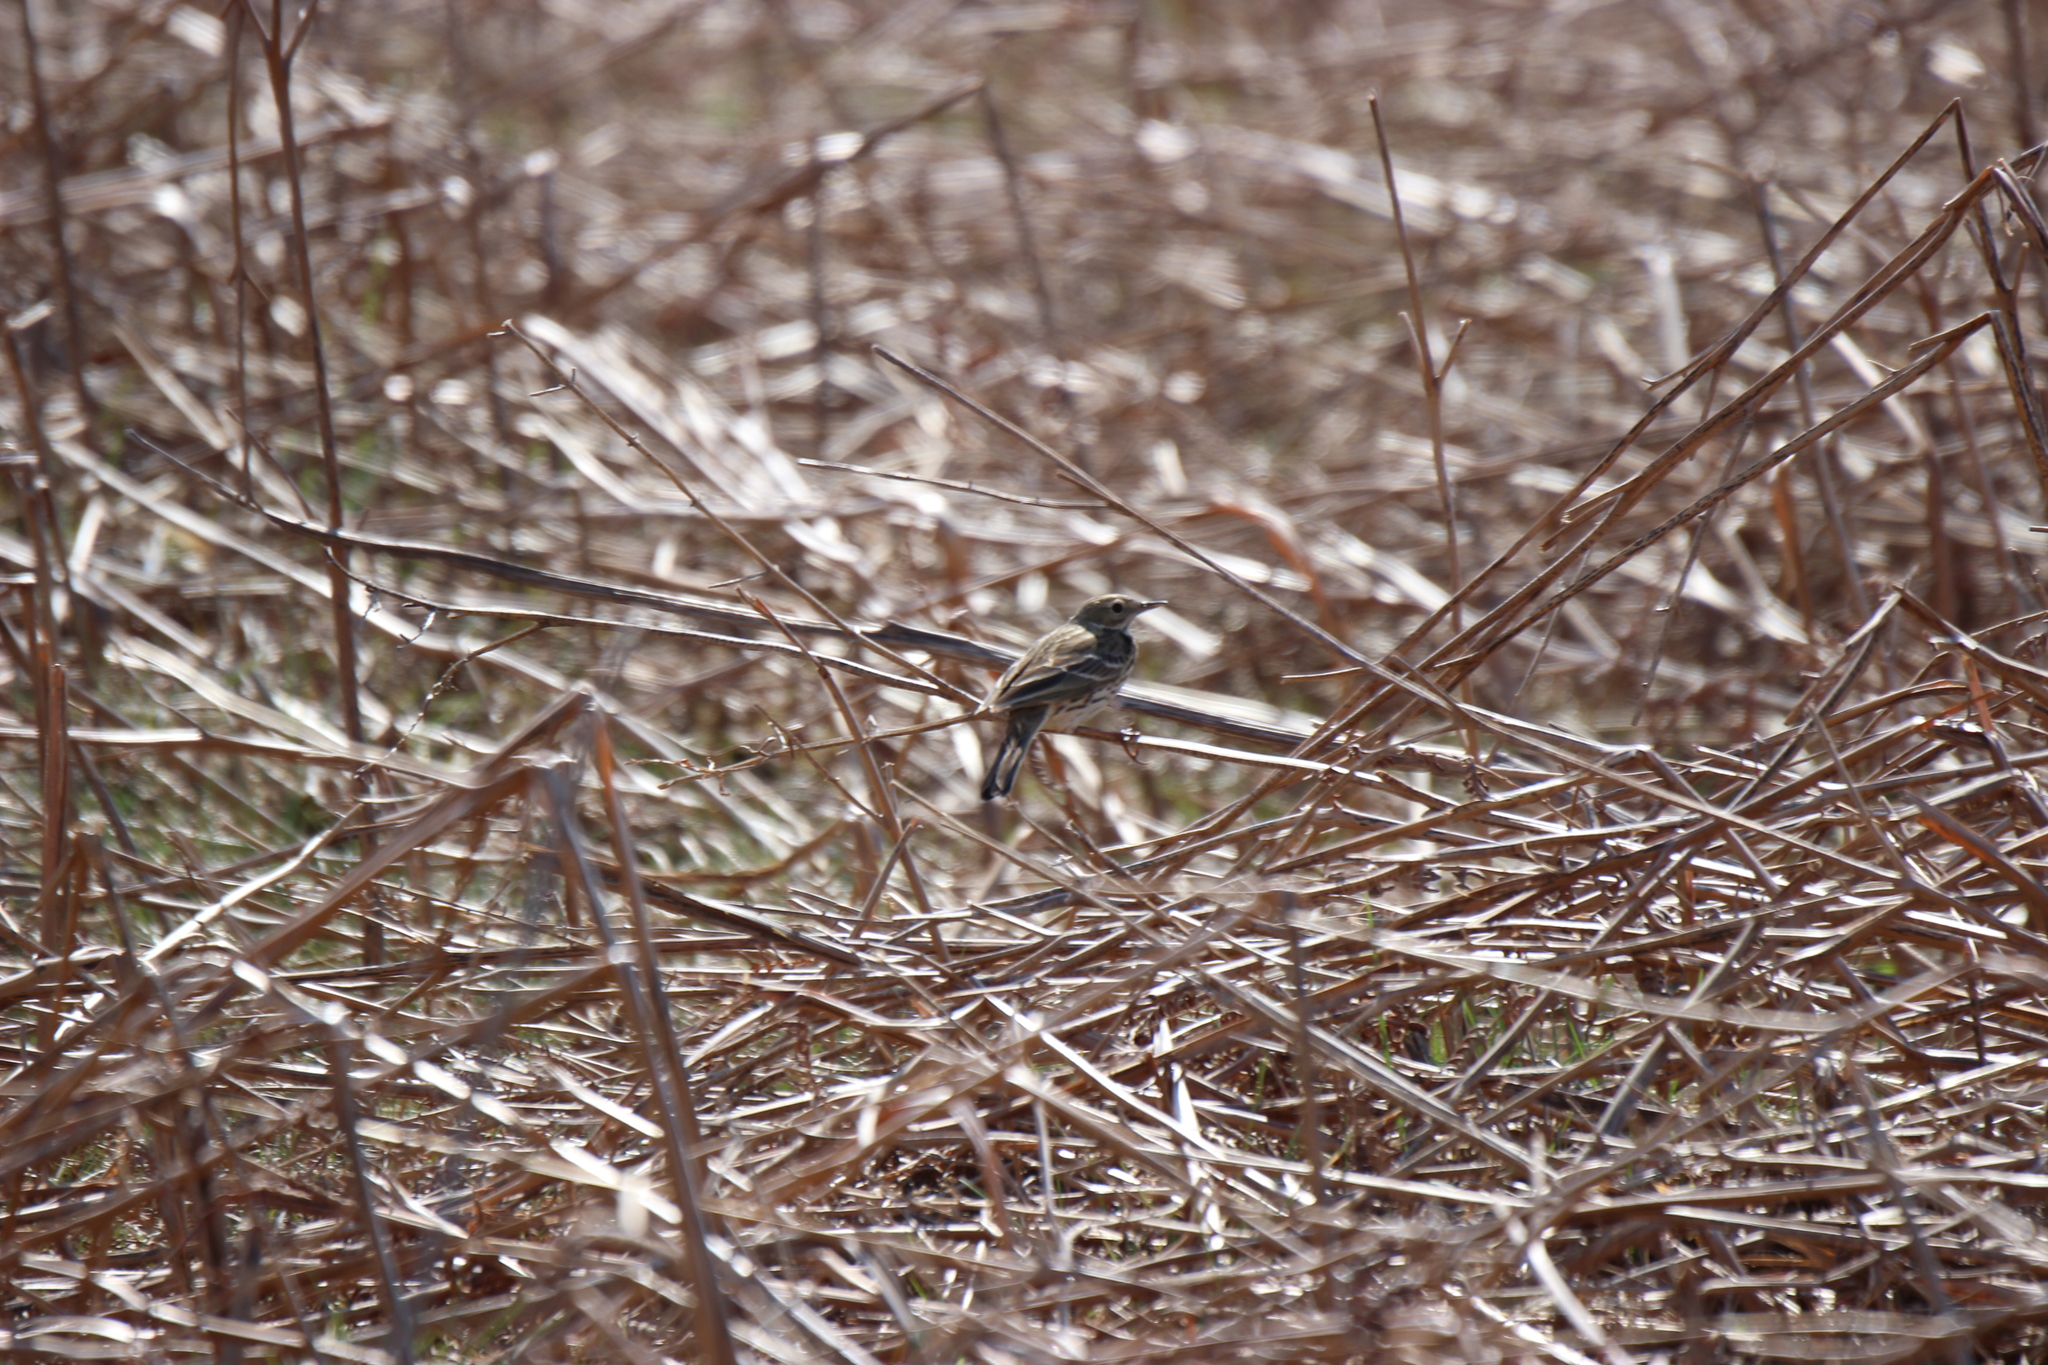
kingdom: Animalia
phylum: Chordata
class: Aves
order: Passeriformes
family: Motacillidae
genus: Anthus
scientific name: Anthus pratensis
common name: Meadow pipit
